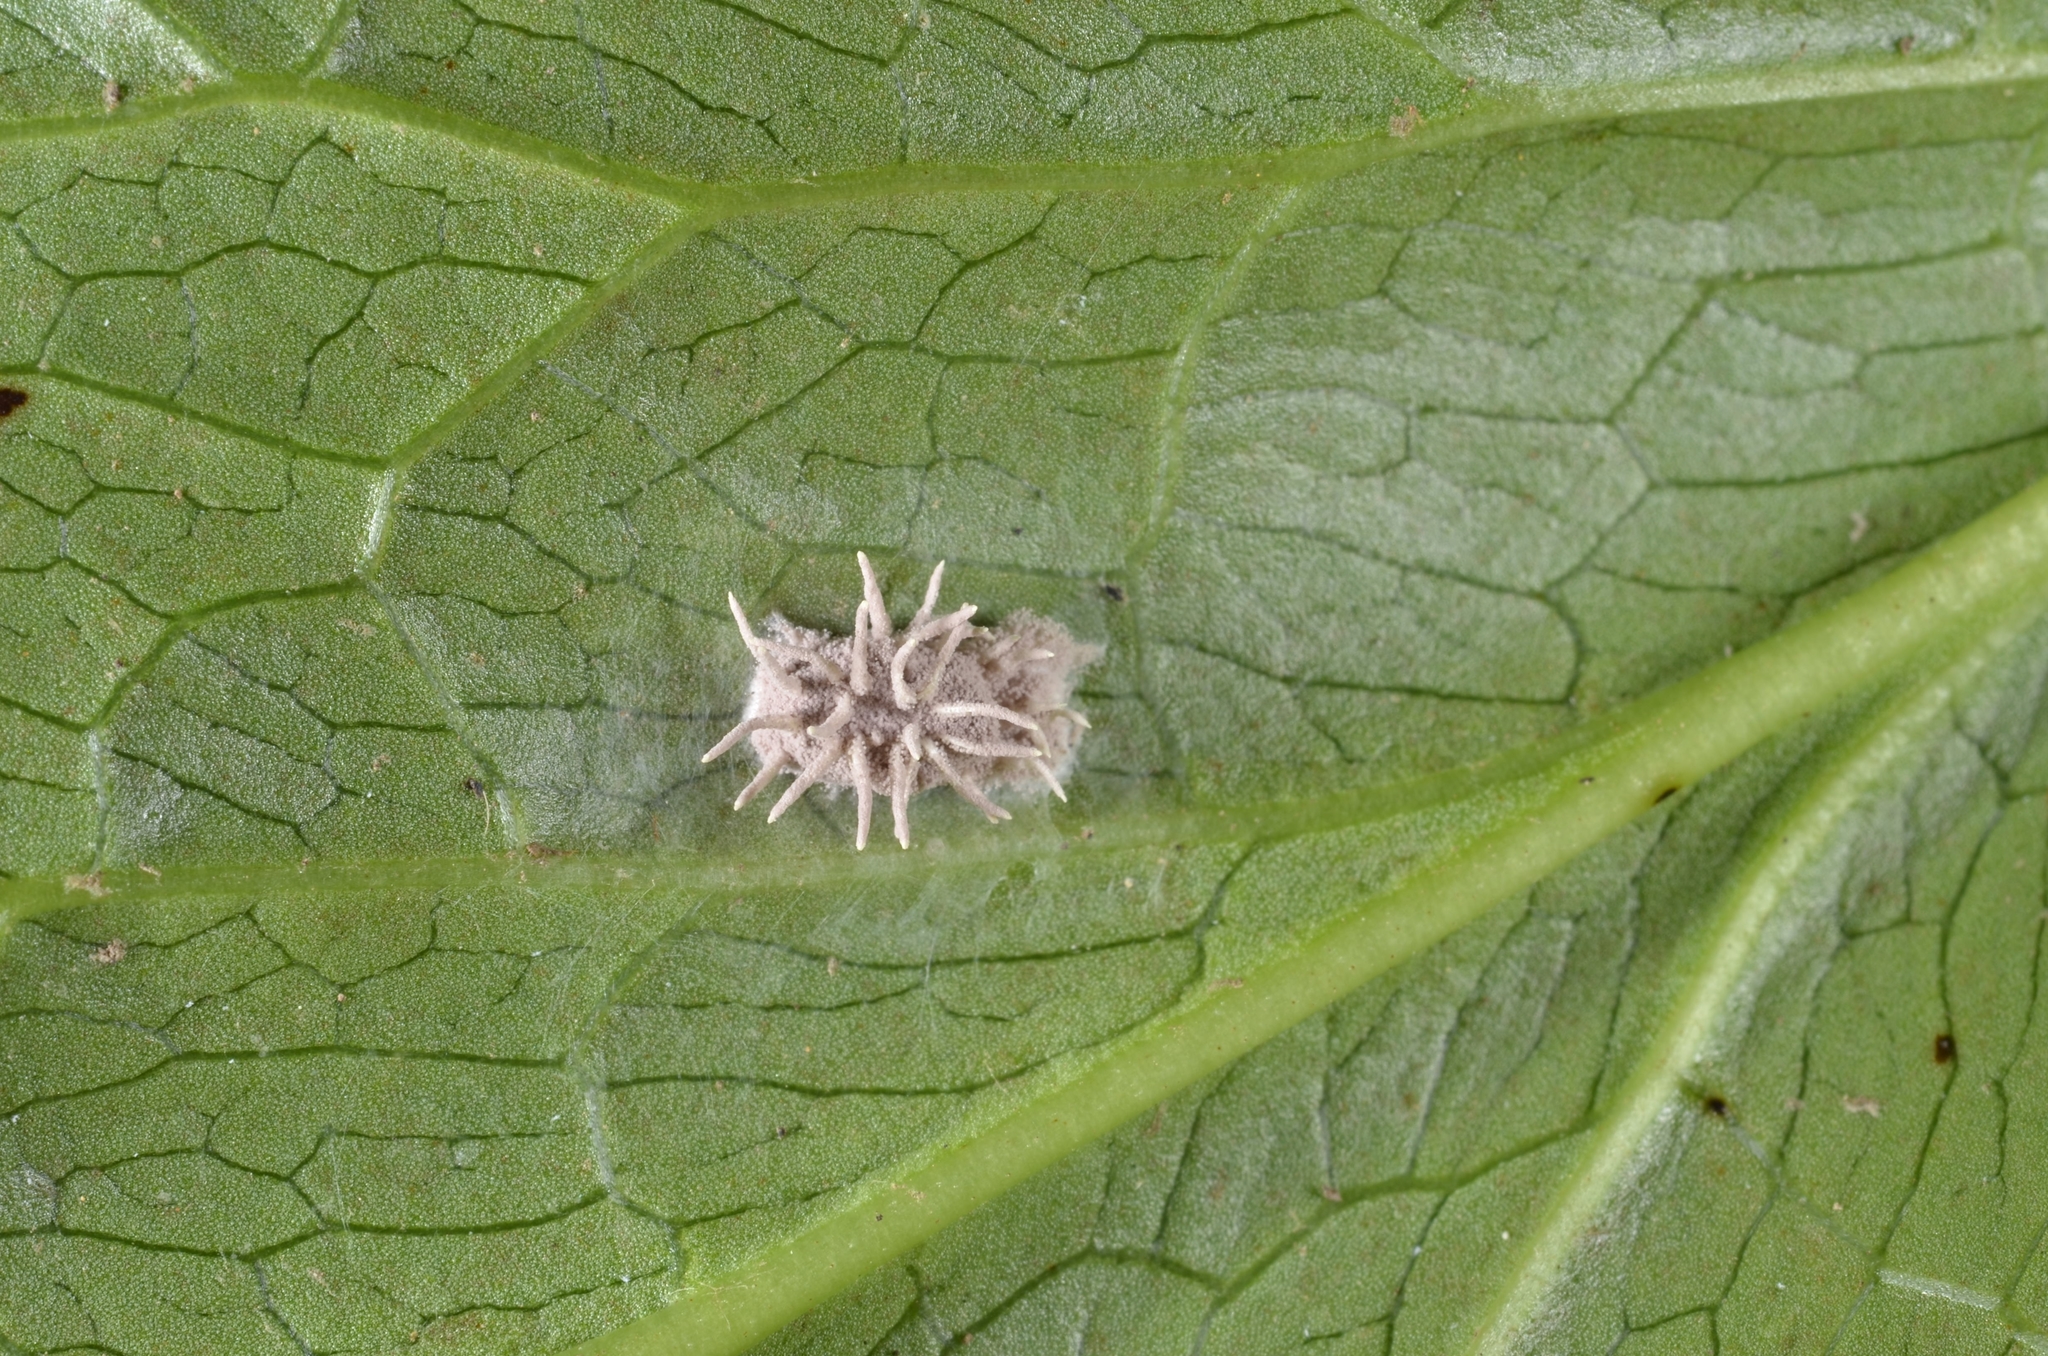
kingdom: Fungi
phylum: Ascomycota
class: Sordariomycetes
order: Hypocreales
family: Cordycipitaceae
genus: Gibellula
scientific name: Gibellula arachnophila
